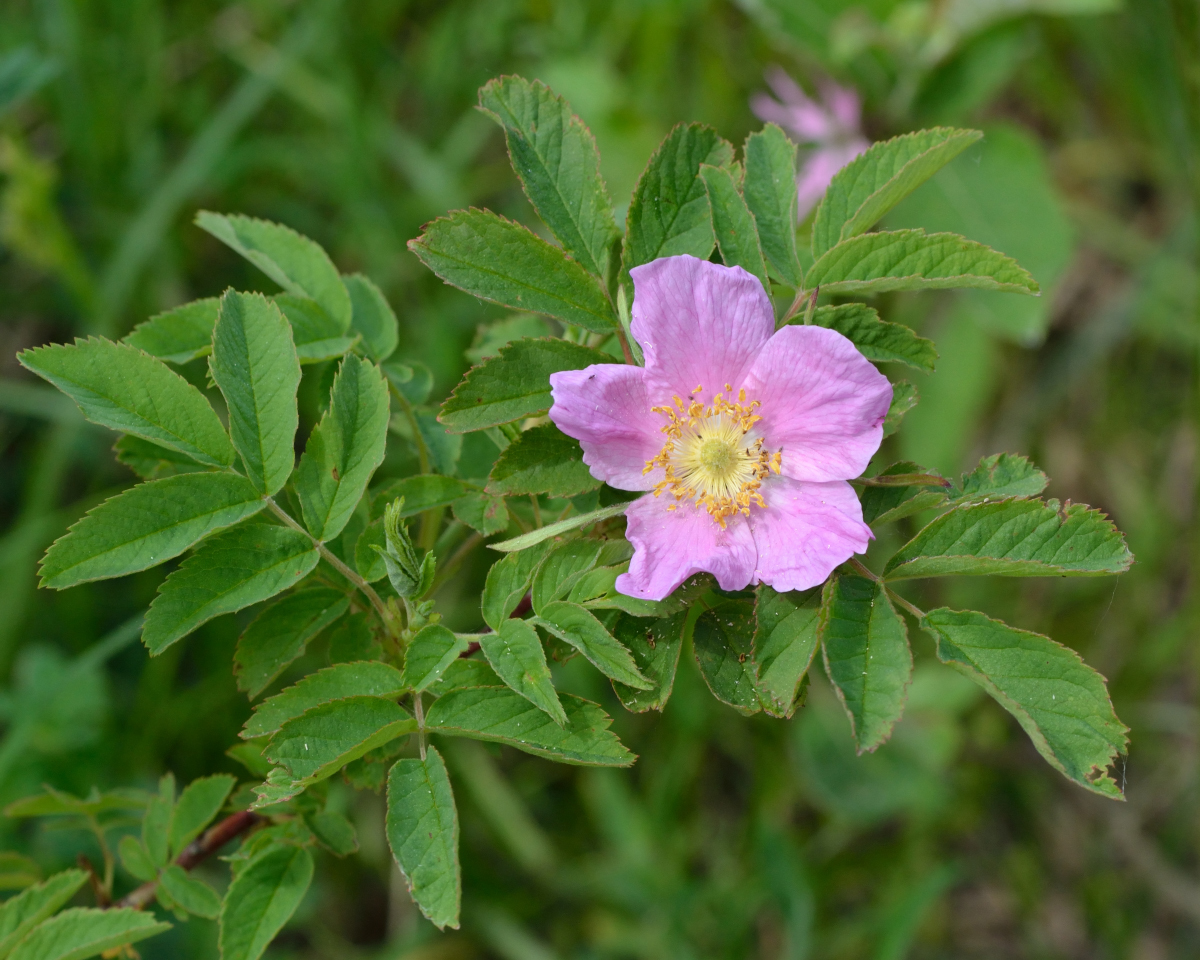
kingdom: Plantae
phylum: Tracheophyta
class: Magnoliopsida
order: Rosales
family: Rosaceae
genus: Rosa
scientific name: Rosa majalis
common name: Cinnamon rose
